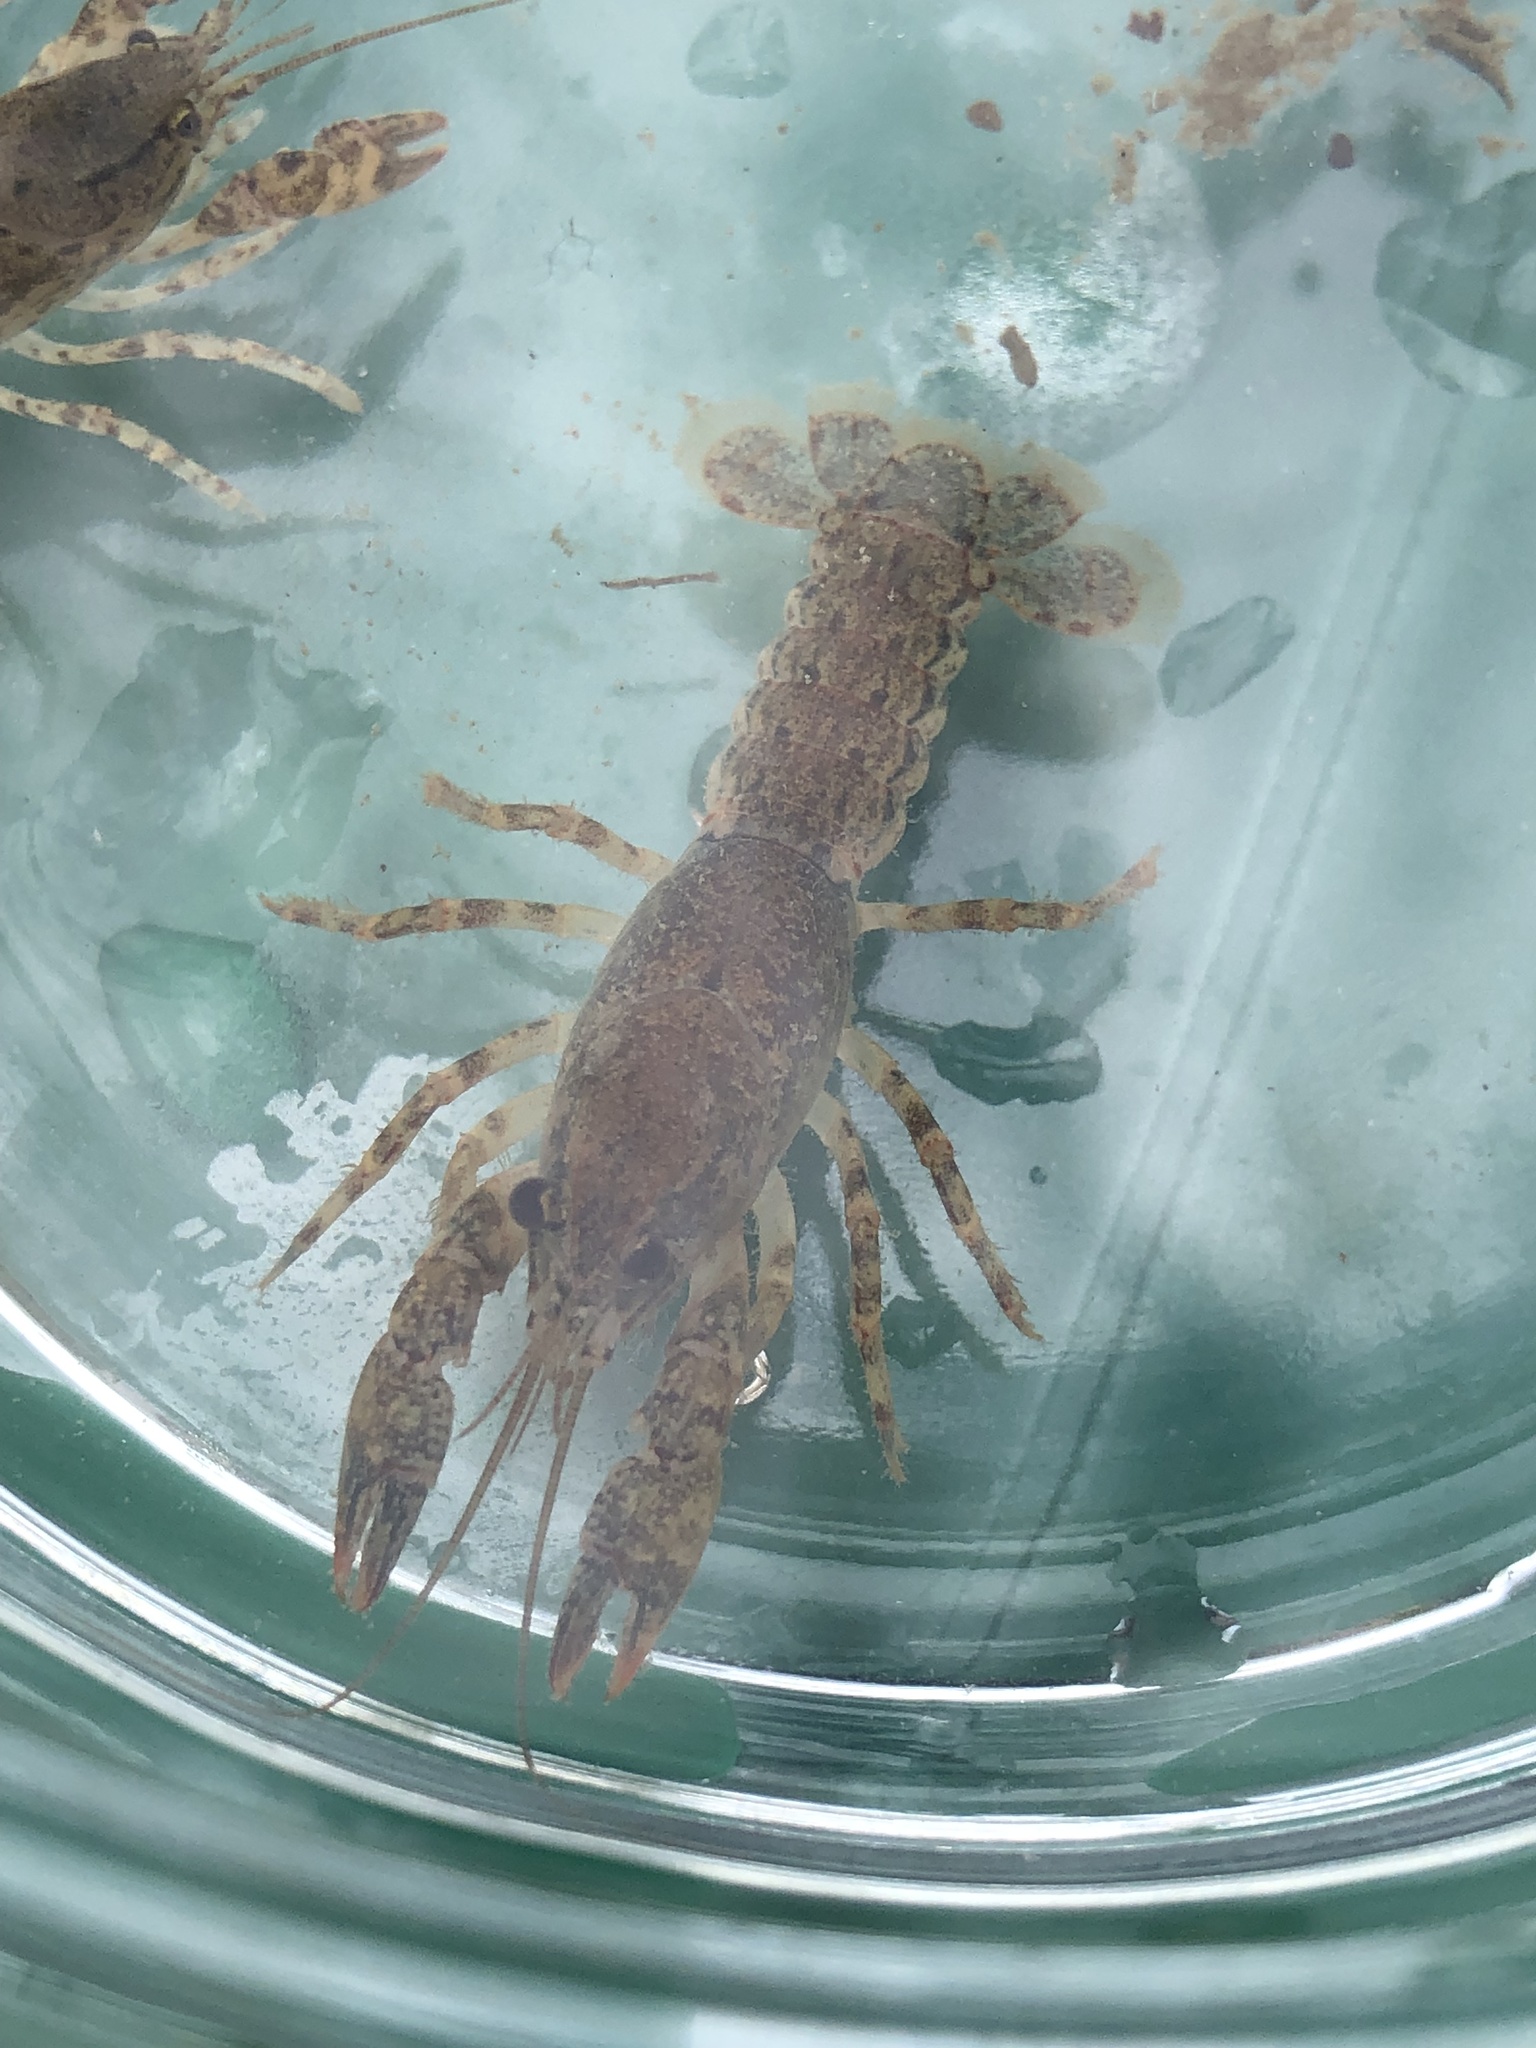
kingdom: Animalia
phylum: Arthropoda
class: Malacostraca
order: Decapoda
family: Cambaridae
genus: Faxonius
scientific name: Faxonius sloanii
